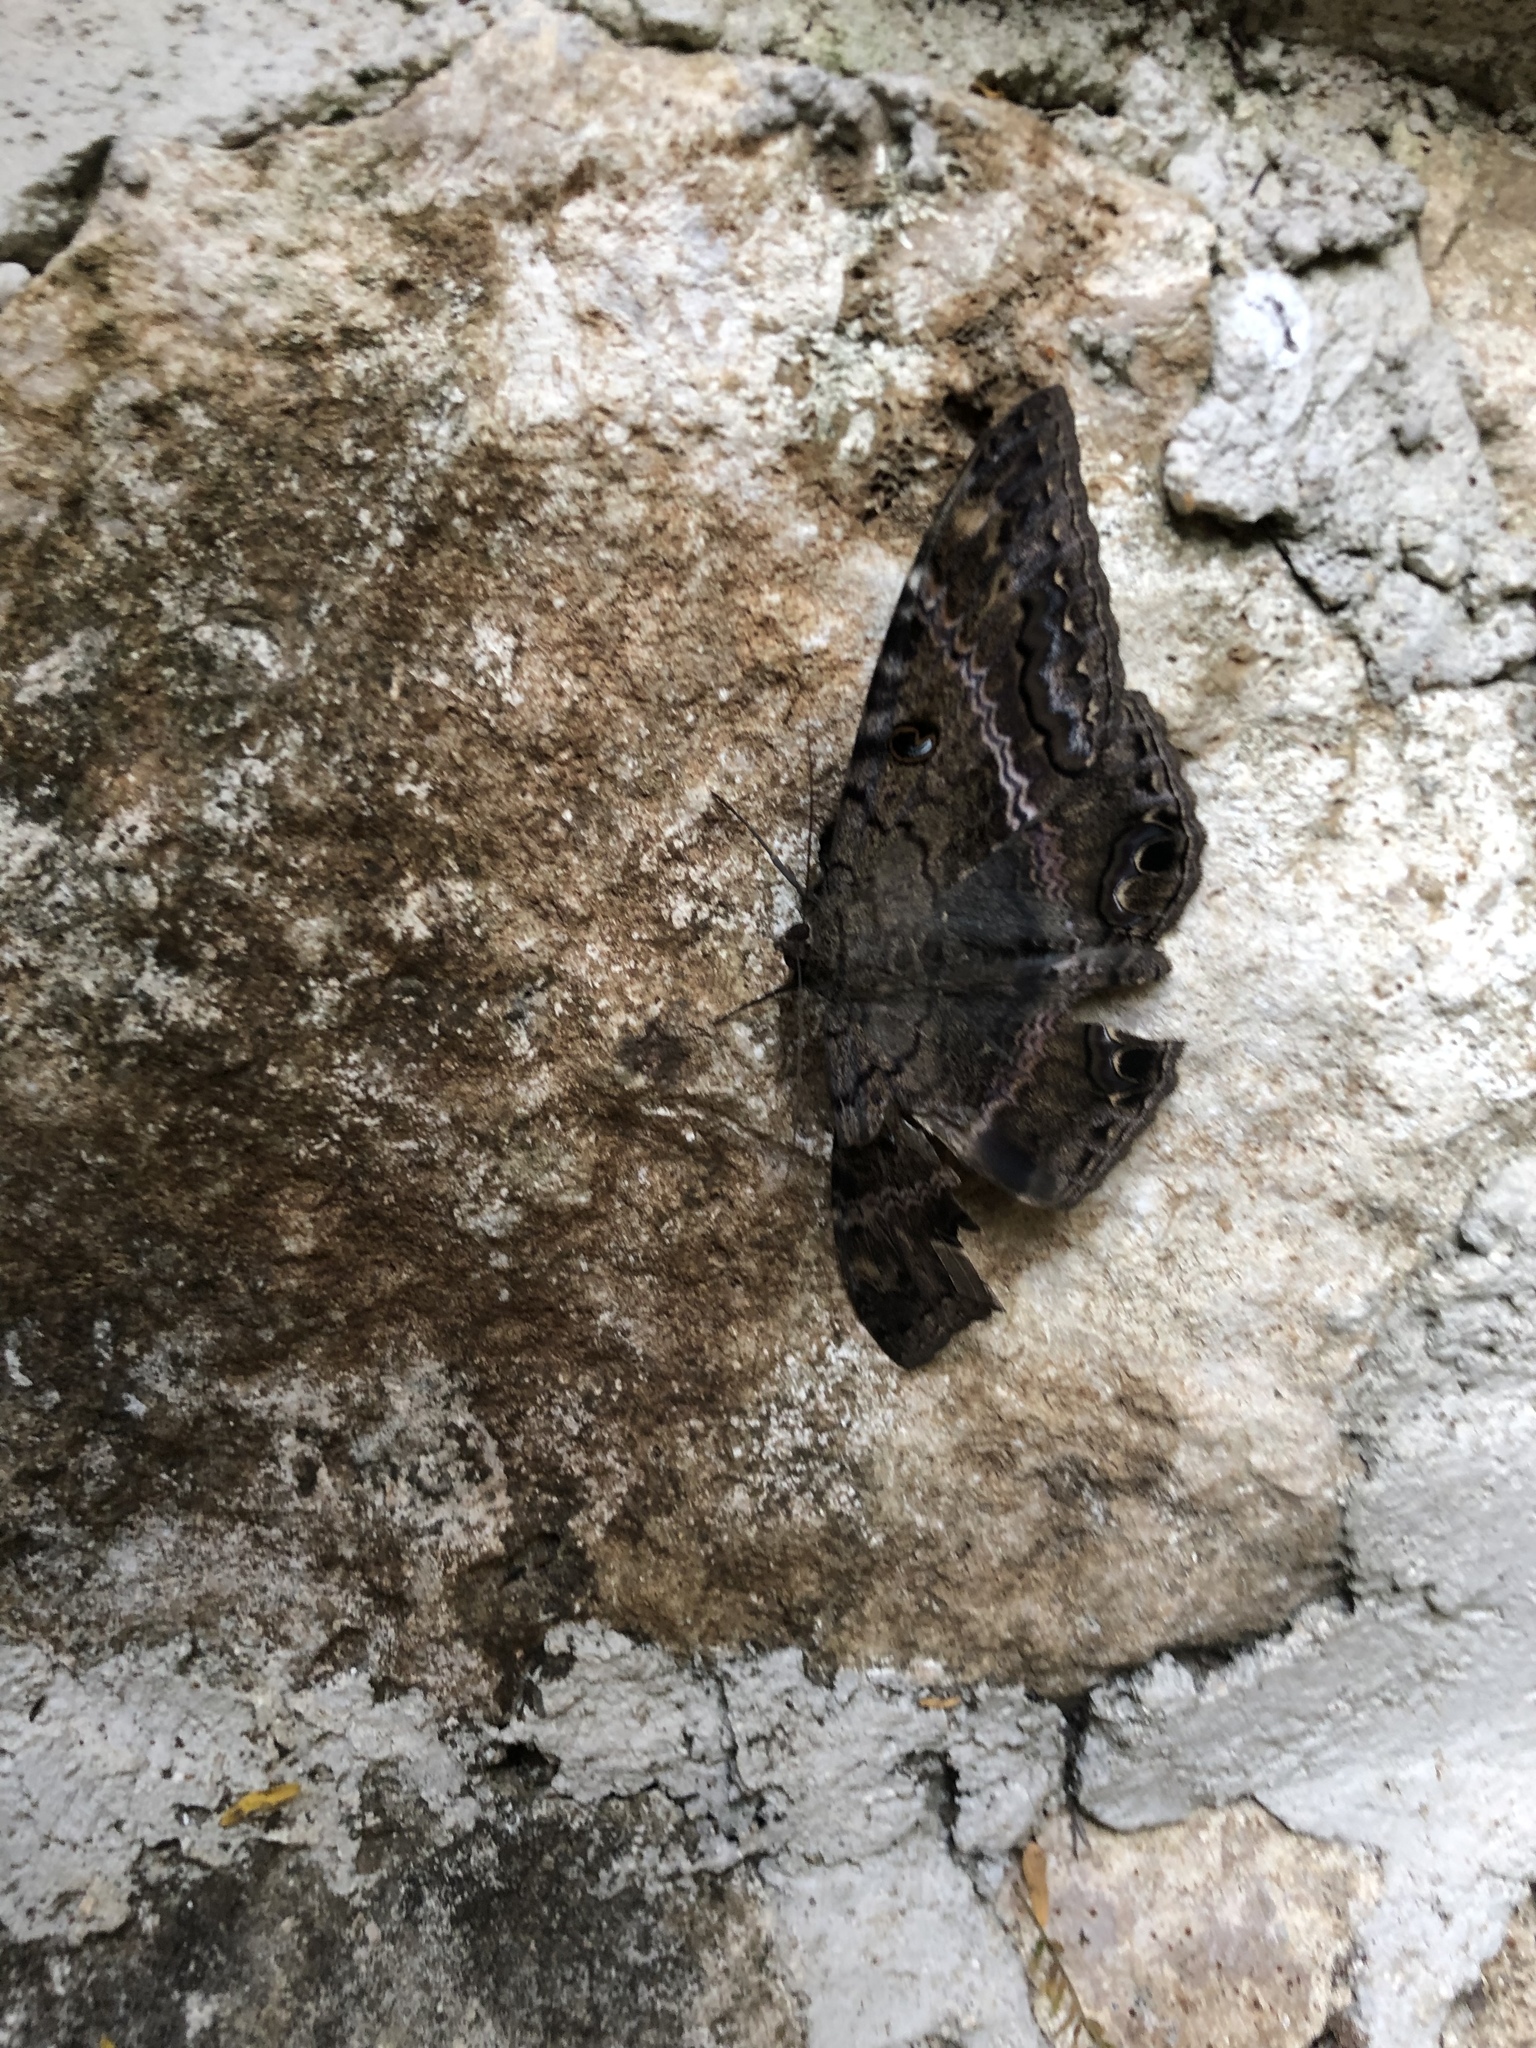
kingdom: Animalia
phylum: Arthropoda
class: Insecta
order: Lepidoptera
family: Erebidae
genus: Ascalapha
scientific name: Ascalapha odorata
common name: Black witch
